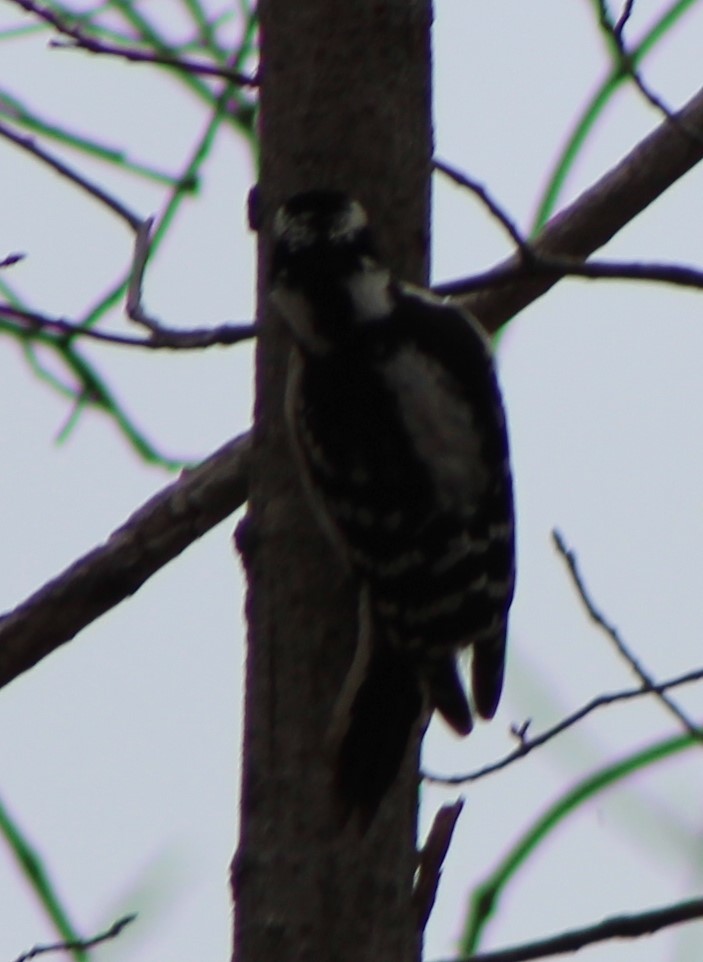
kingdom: Animalia
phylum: Chordata
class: Aves
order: Piciformes
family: Picidae
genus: Dryobates
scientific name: Dryobates pubescens
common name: Downy woodpecker
